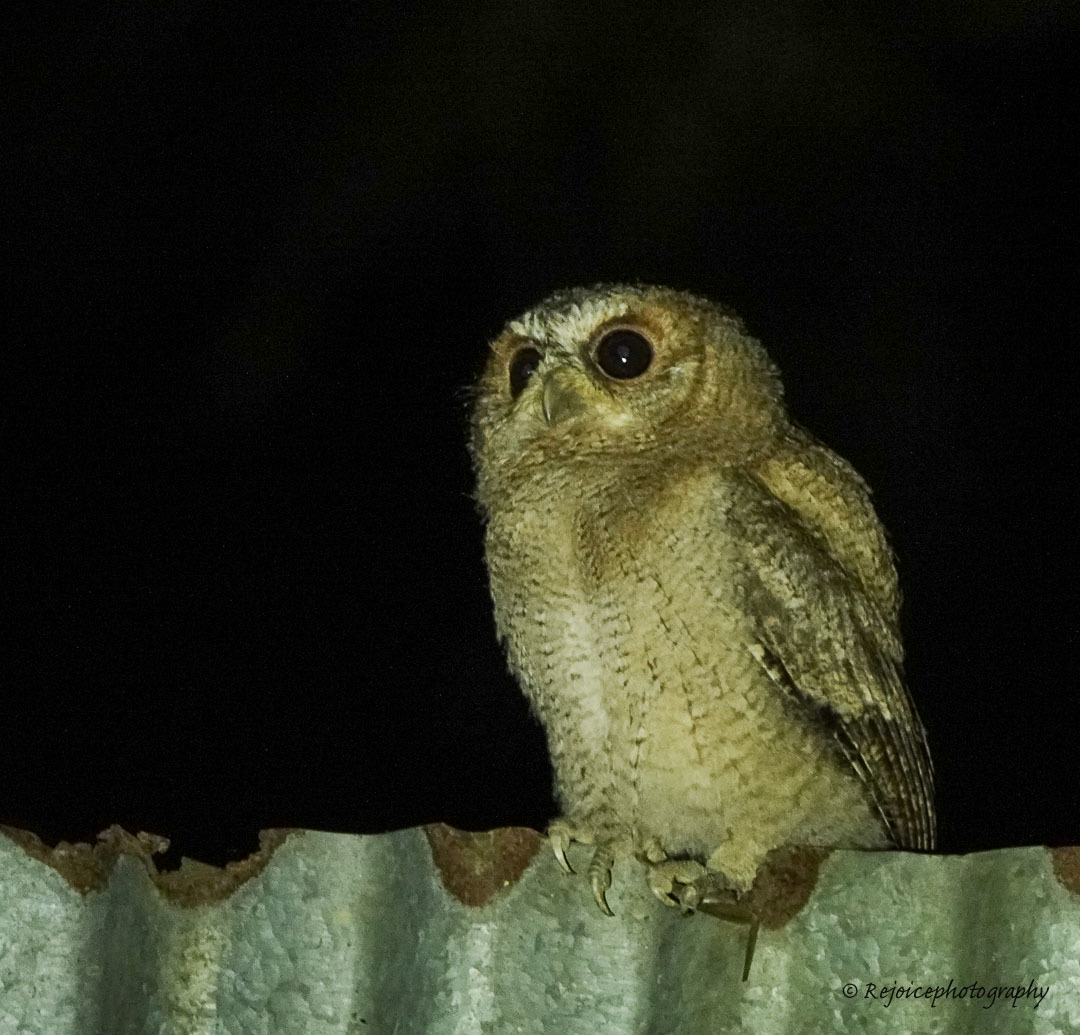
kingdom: Animalia
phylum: Chordata
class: Aves
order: Strigiformes
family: Strigidae
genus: Otus
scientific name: Otus lettia
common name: Collared scops owl
